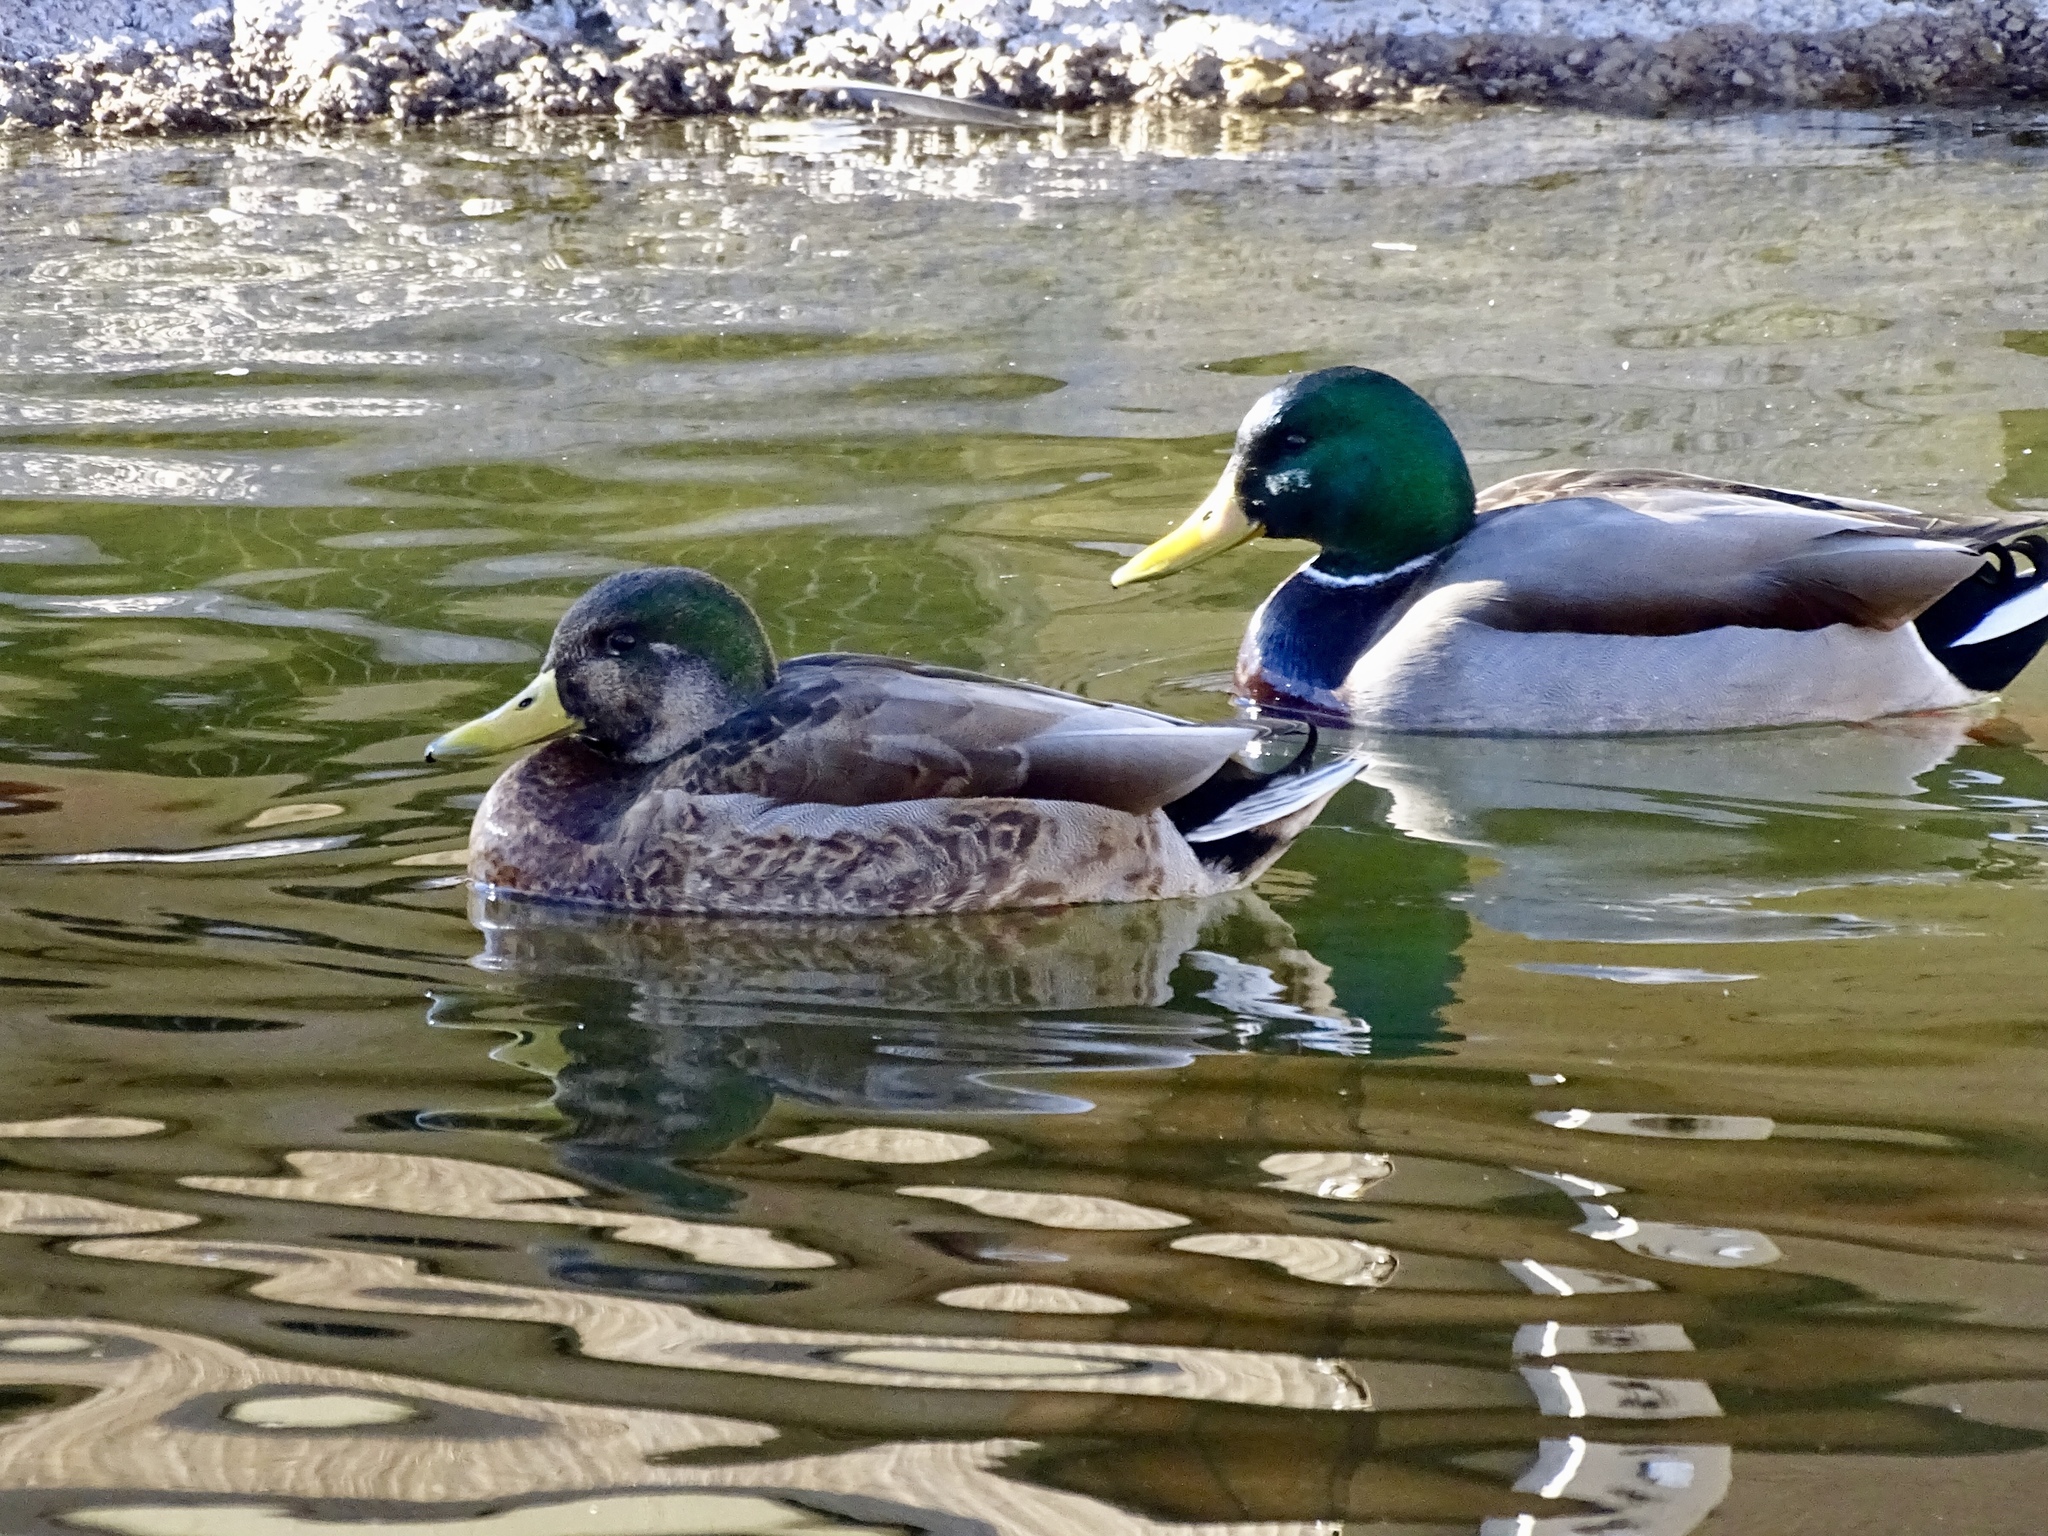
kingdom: Animalia
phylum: Chordata
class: Aves
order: Anseriformes
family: Anatidae
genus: Anas
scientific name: Anas
